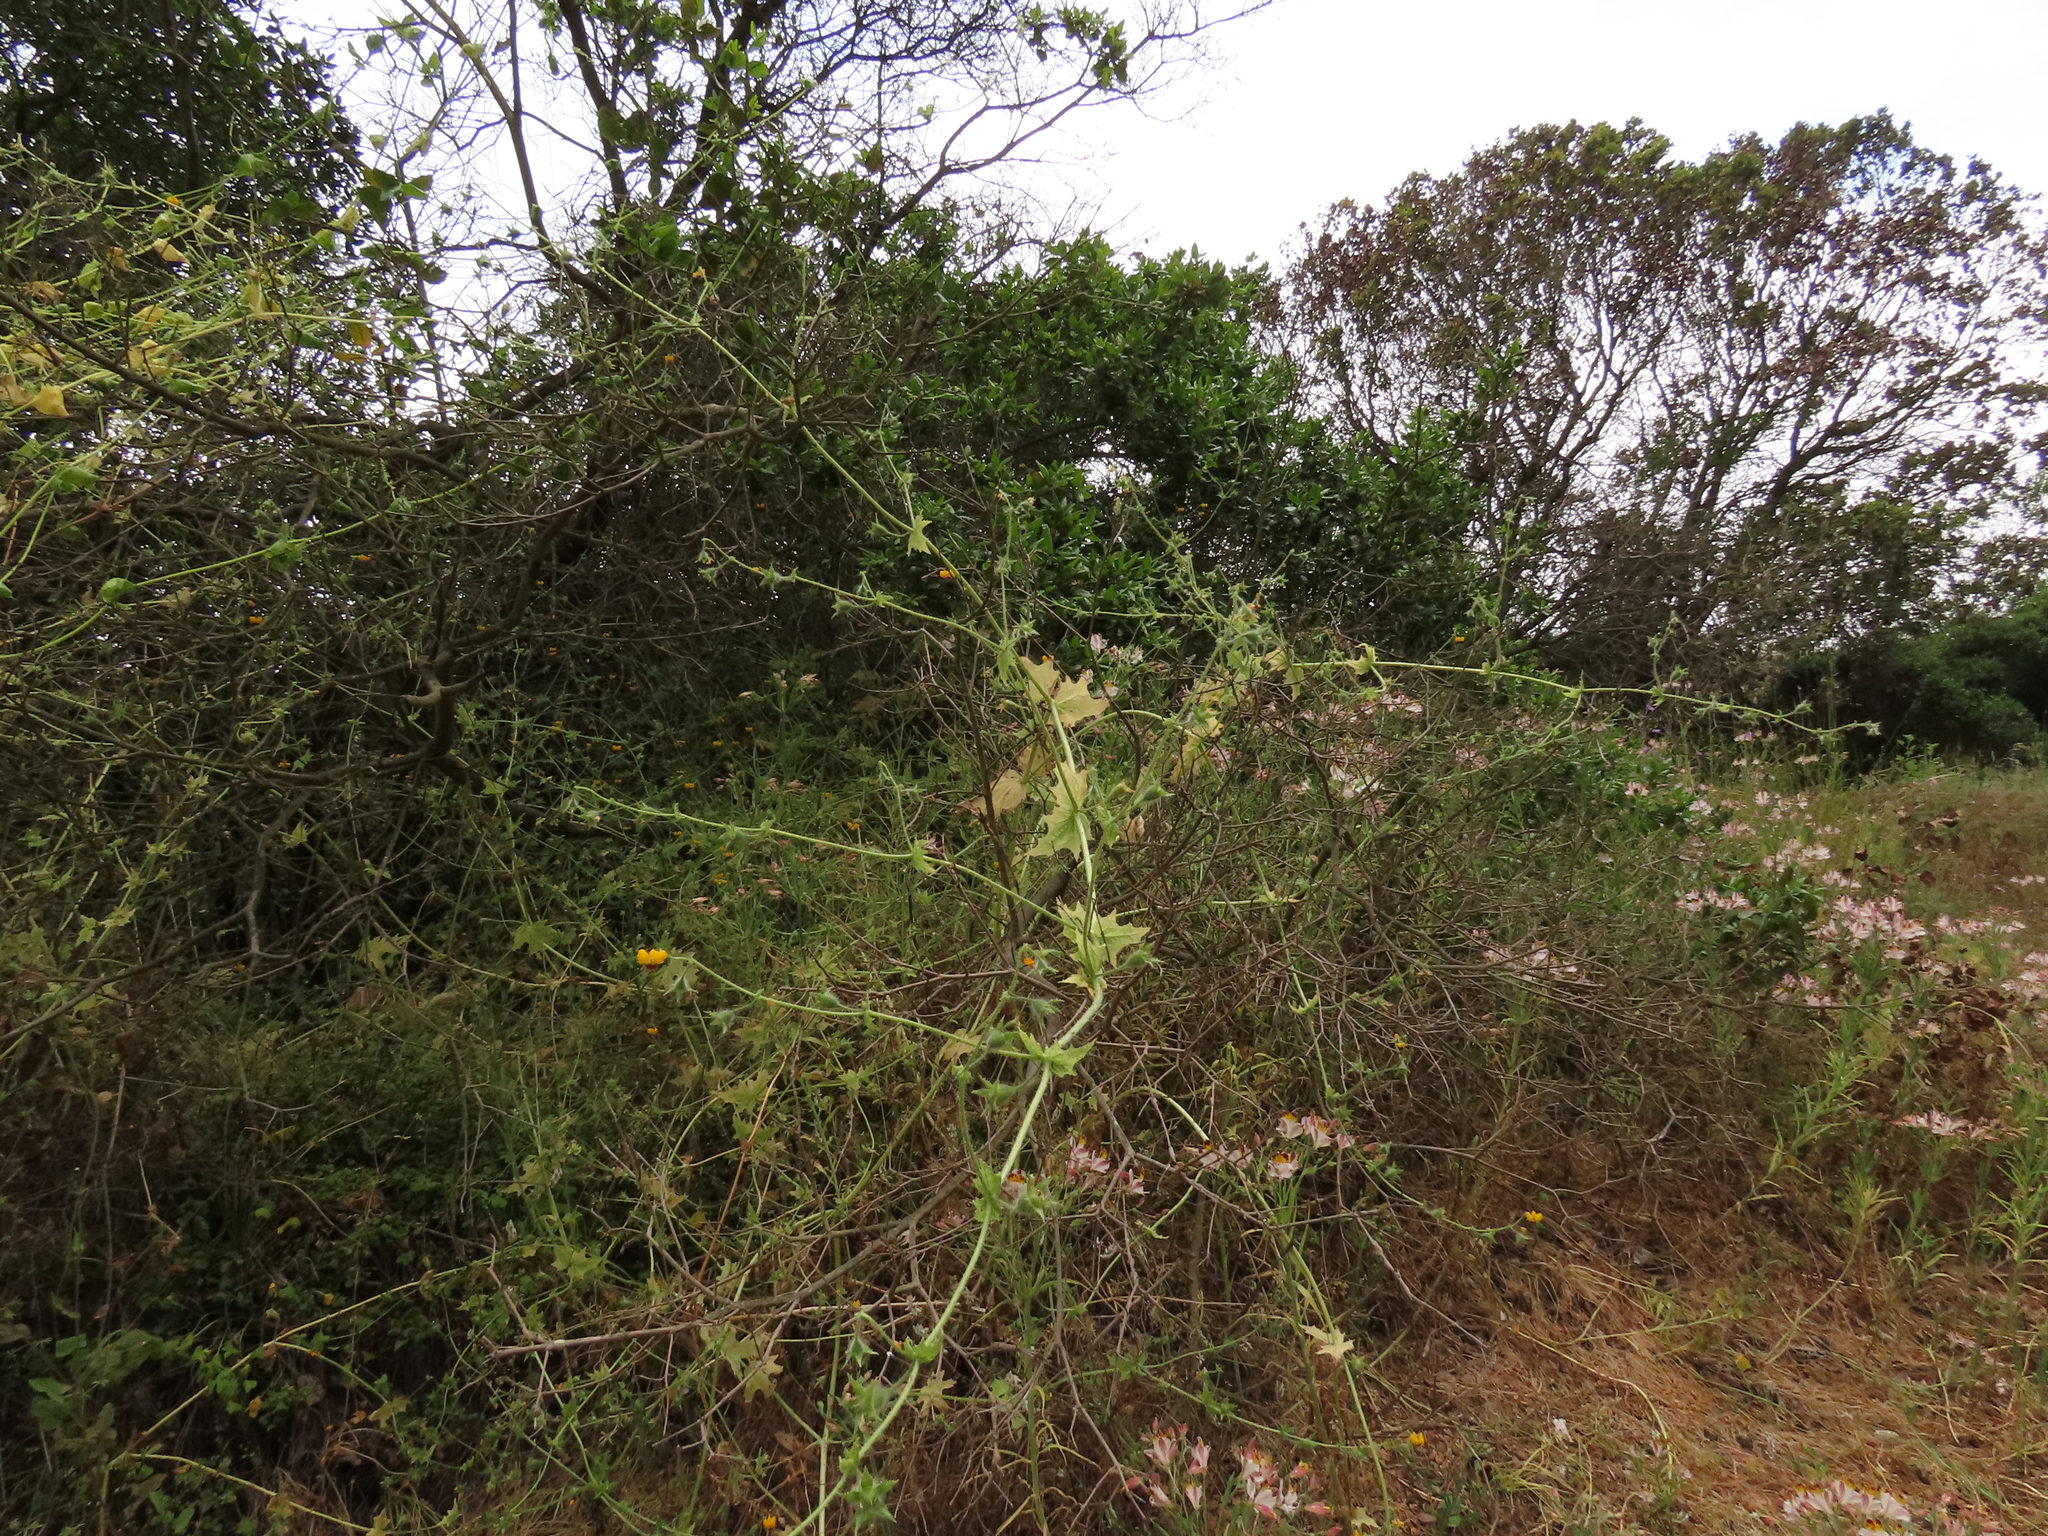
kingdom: Plantae
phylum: Tracheophyta
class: Magnoliopsida
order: Cornales
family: Loasaceae
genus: Loasa
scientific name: Loasa tricolor
